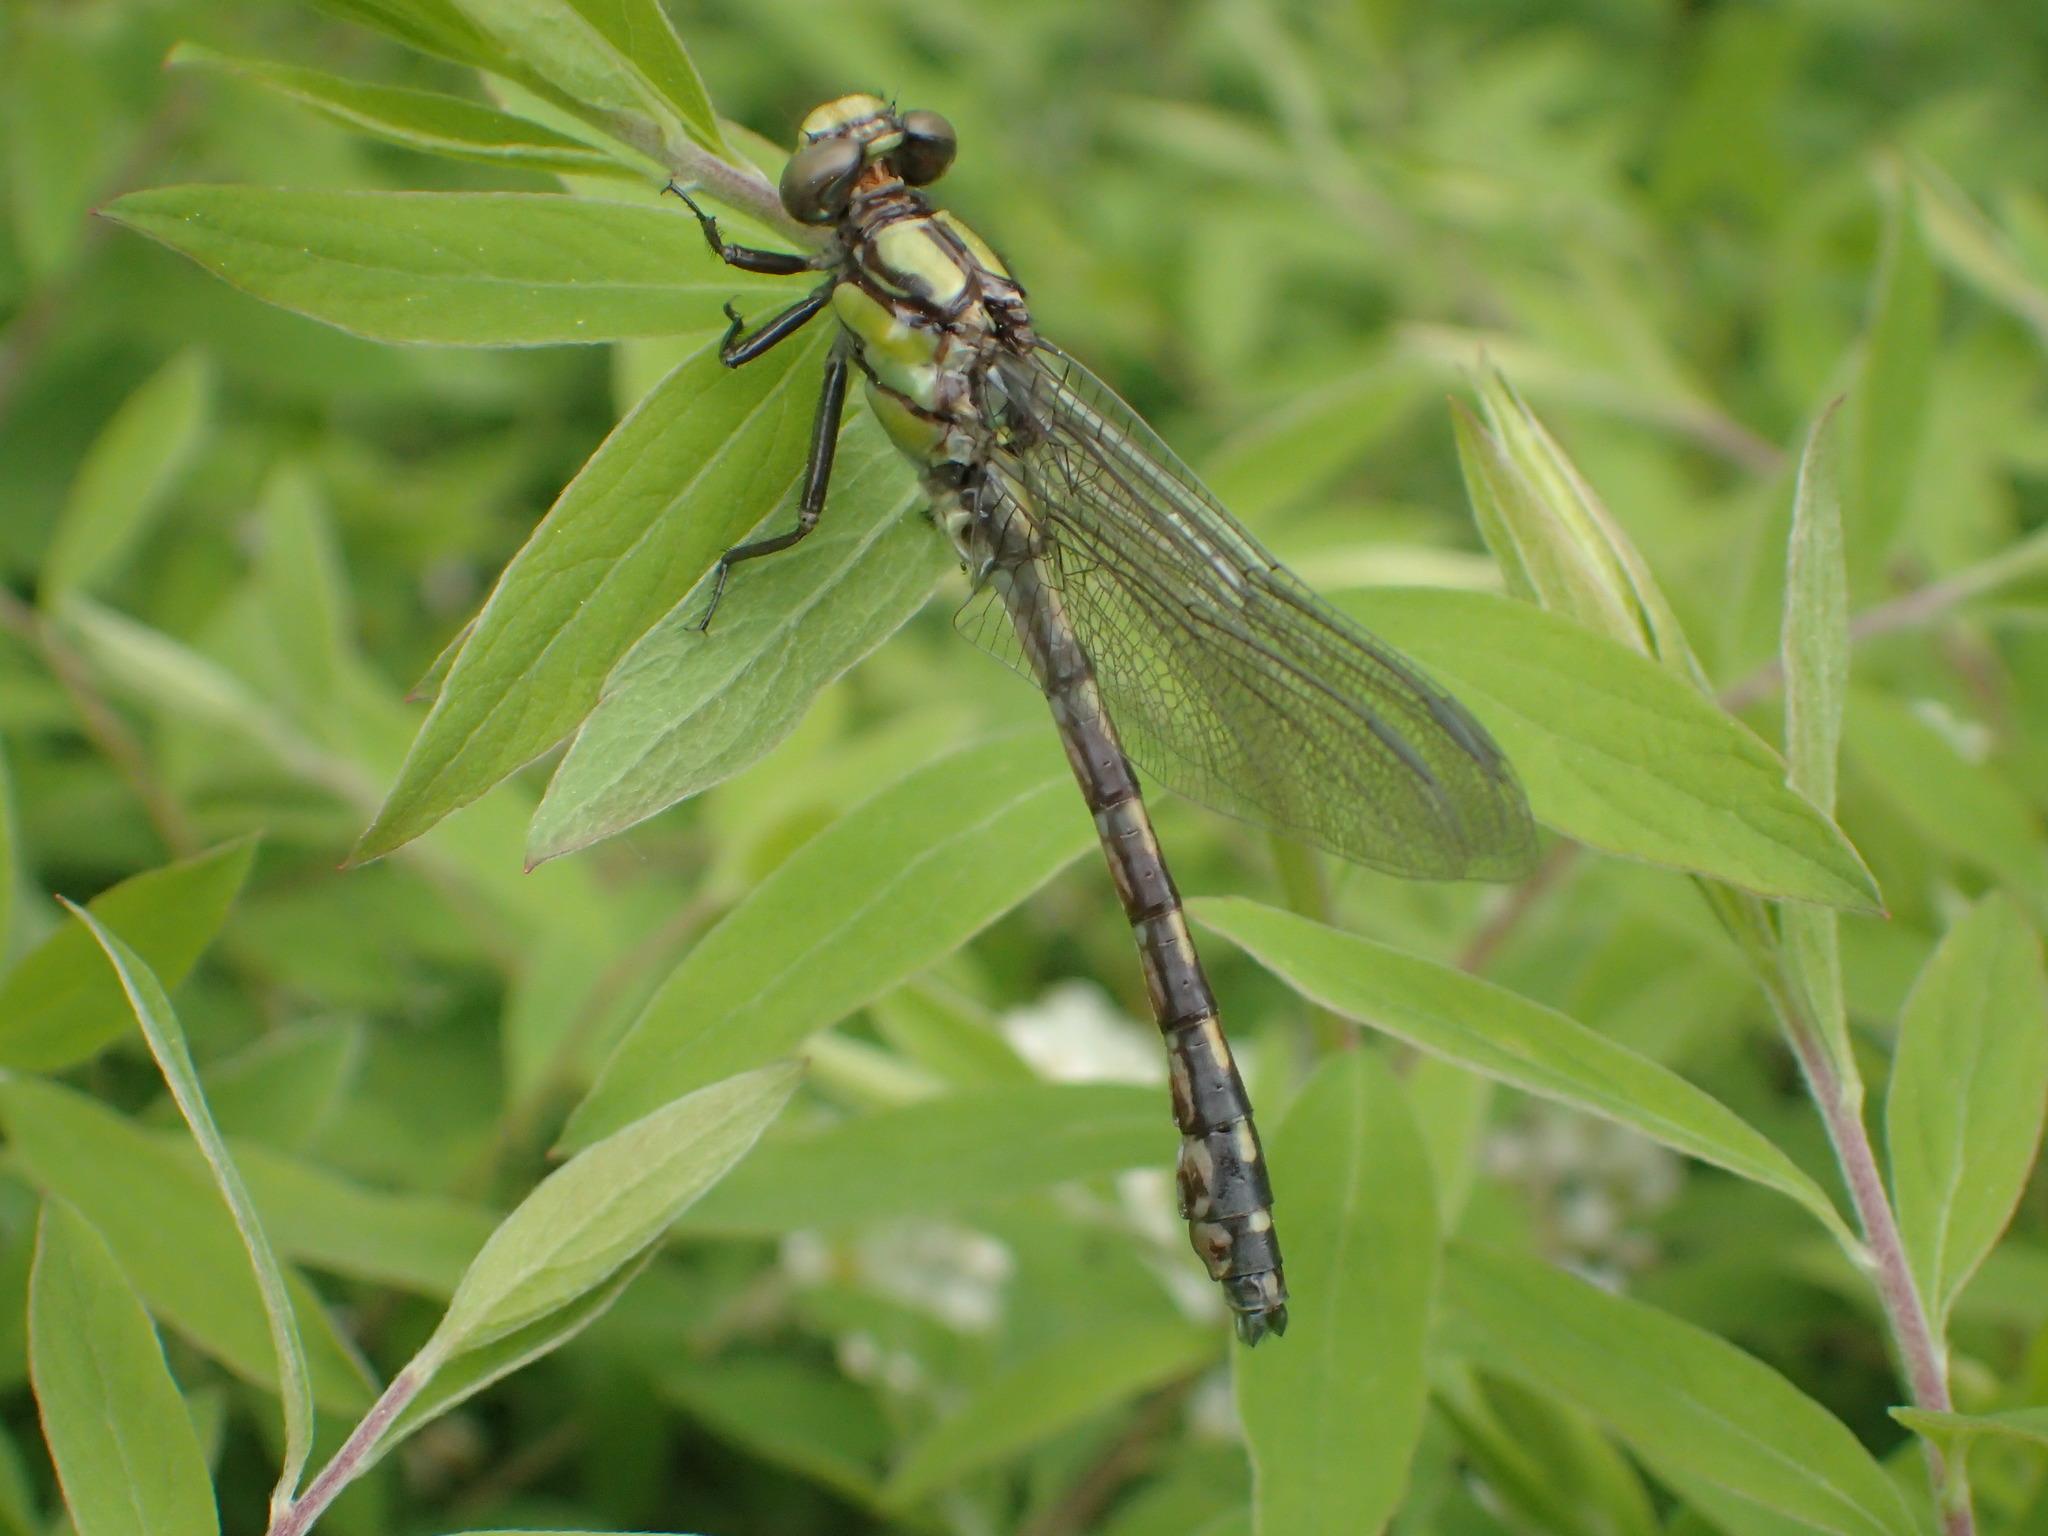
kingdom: Animalia
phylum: Arthropoda
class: Insecta
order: Odonata
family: Gomphidae
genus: Ophiogomphus
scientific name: Ophiogomphus carolus
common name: Riffle snaketail
